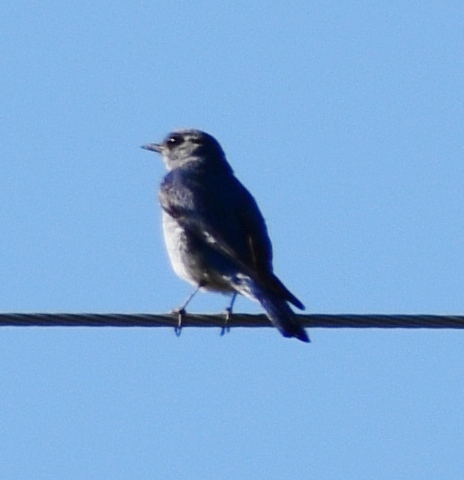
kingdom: Animalia
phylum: Chordata
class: Aves
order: Passeriformes
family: Turdidae
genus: Sialia
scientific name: Sialia currucoides
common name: Mountain bluebird
